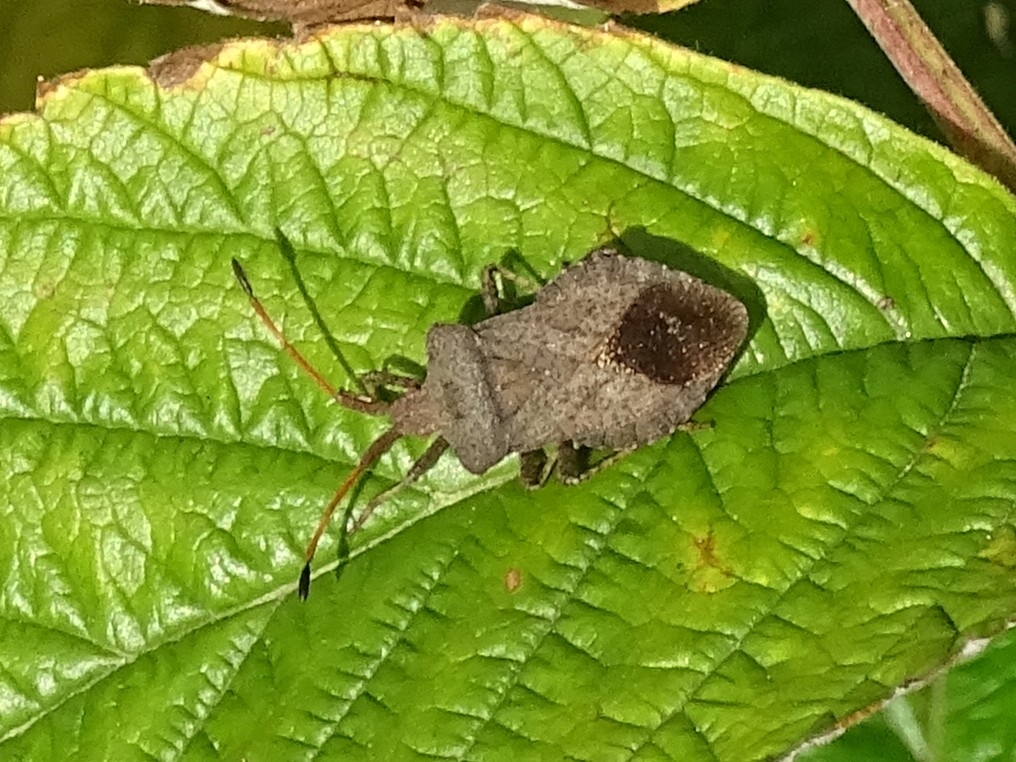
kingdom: Animalia
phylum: Arthropoda
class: Insecta
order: Hemiptera
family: Coreidae
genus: Coreus
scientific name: Coreus marginatus
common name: Dock bug
